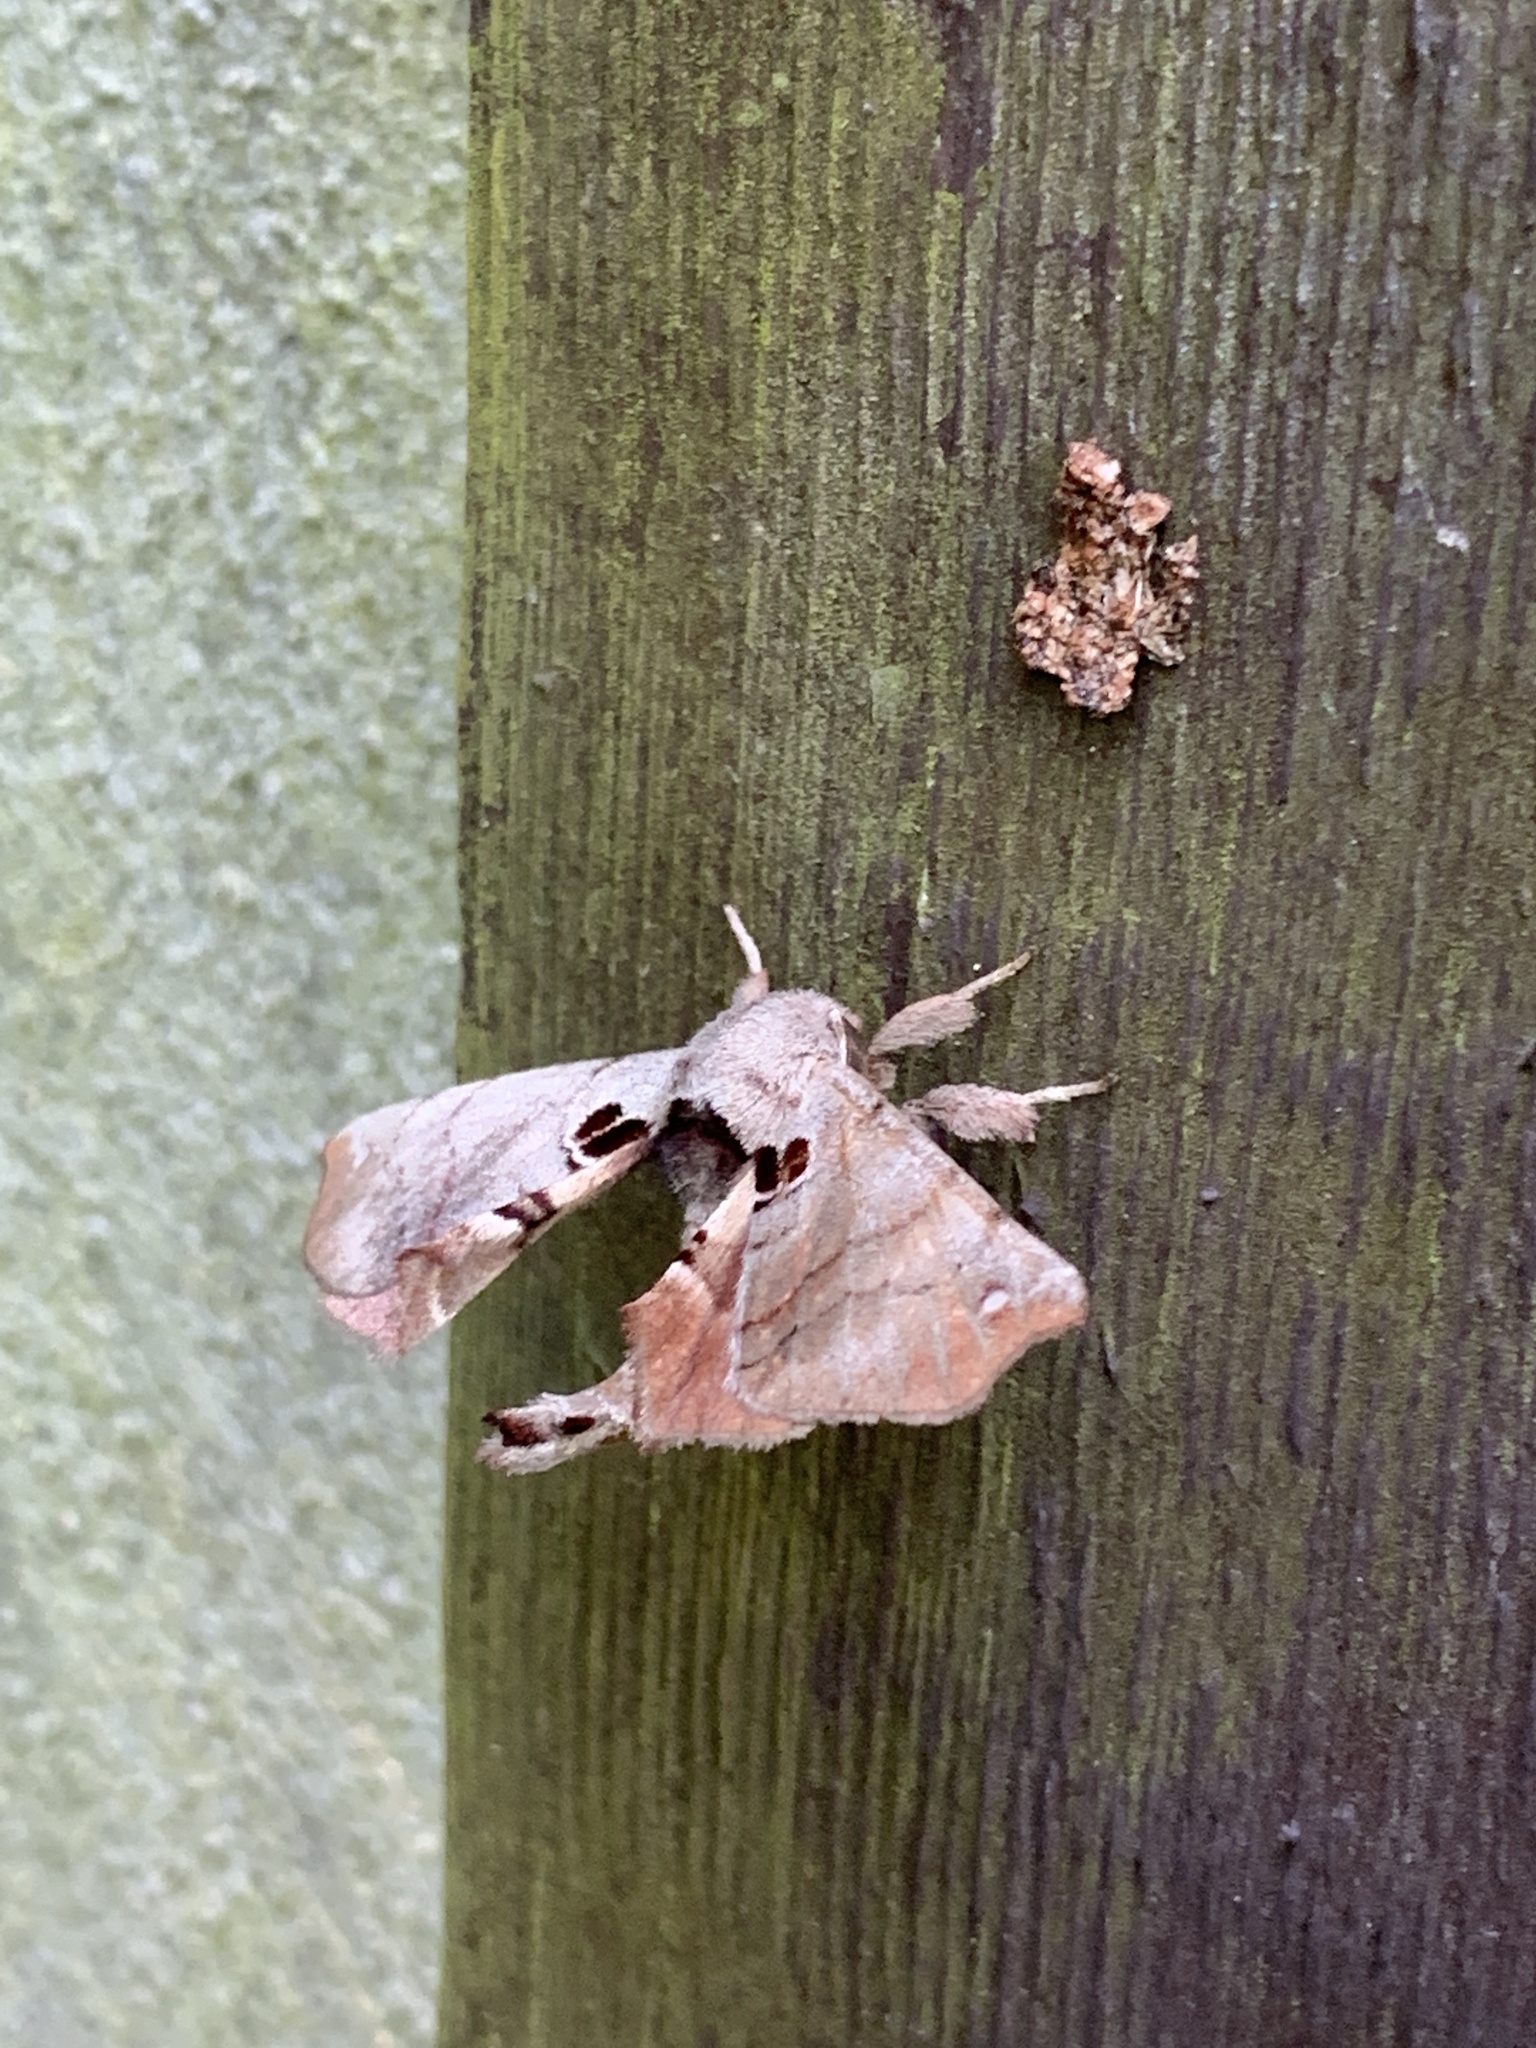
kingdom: Animalia
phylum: Arthropoda
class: Insecta
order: Lepidoptera
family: Apatelodidae
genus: Hygrochroa
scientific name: Hygrochroa Apatelodes torrefacta
